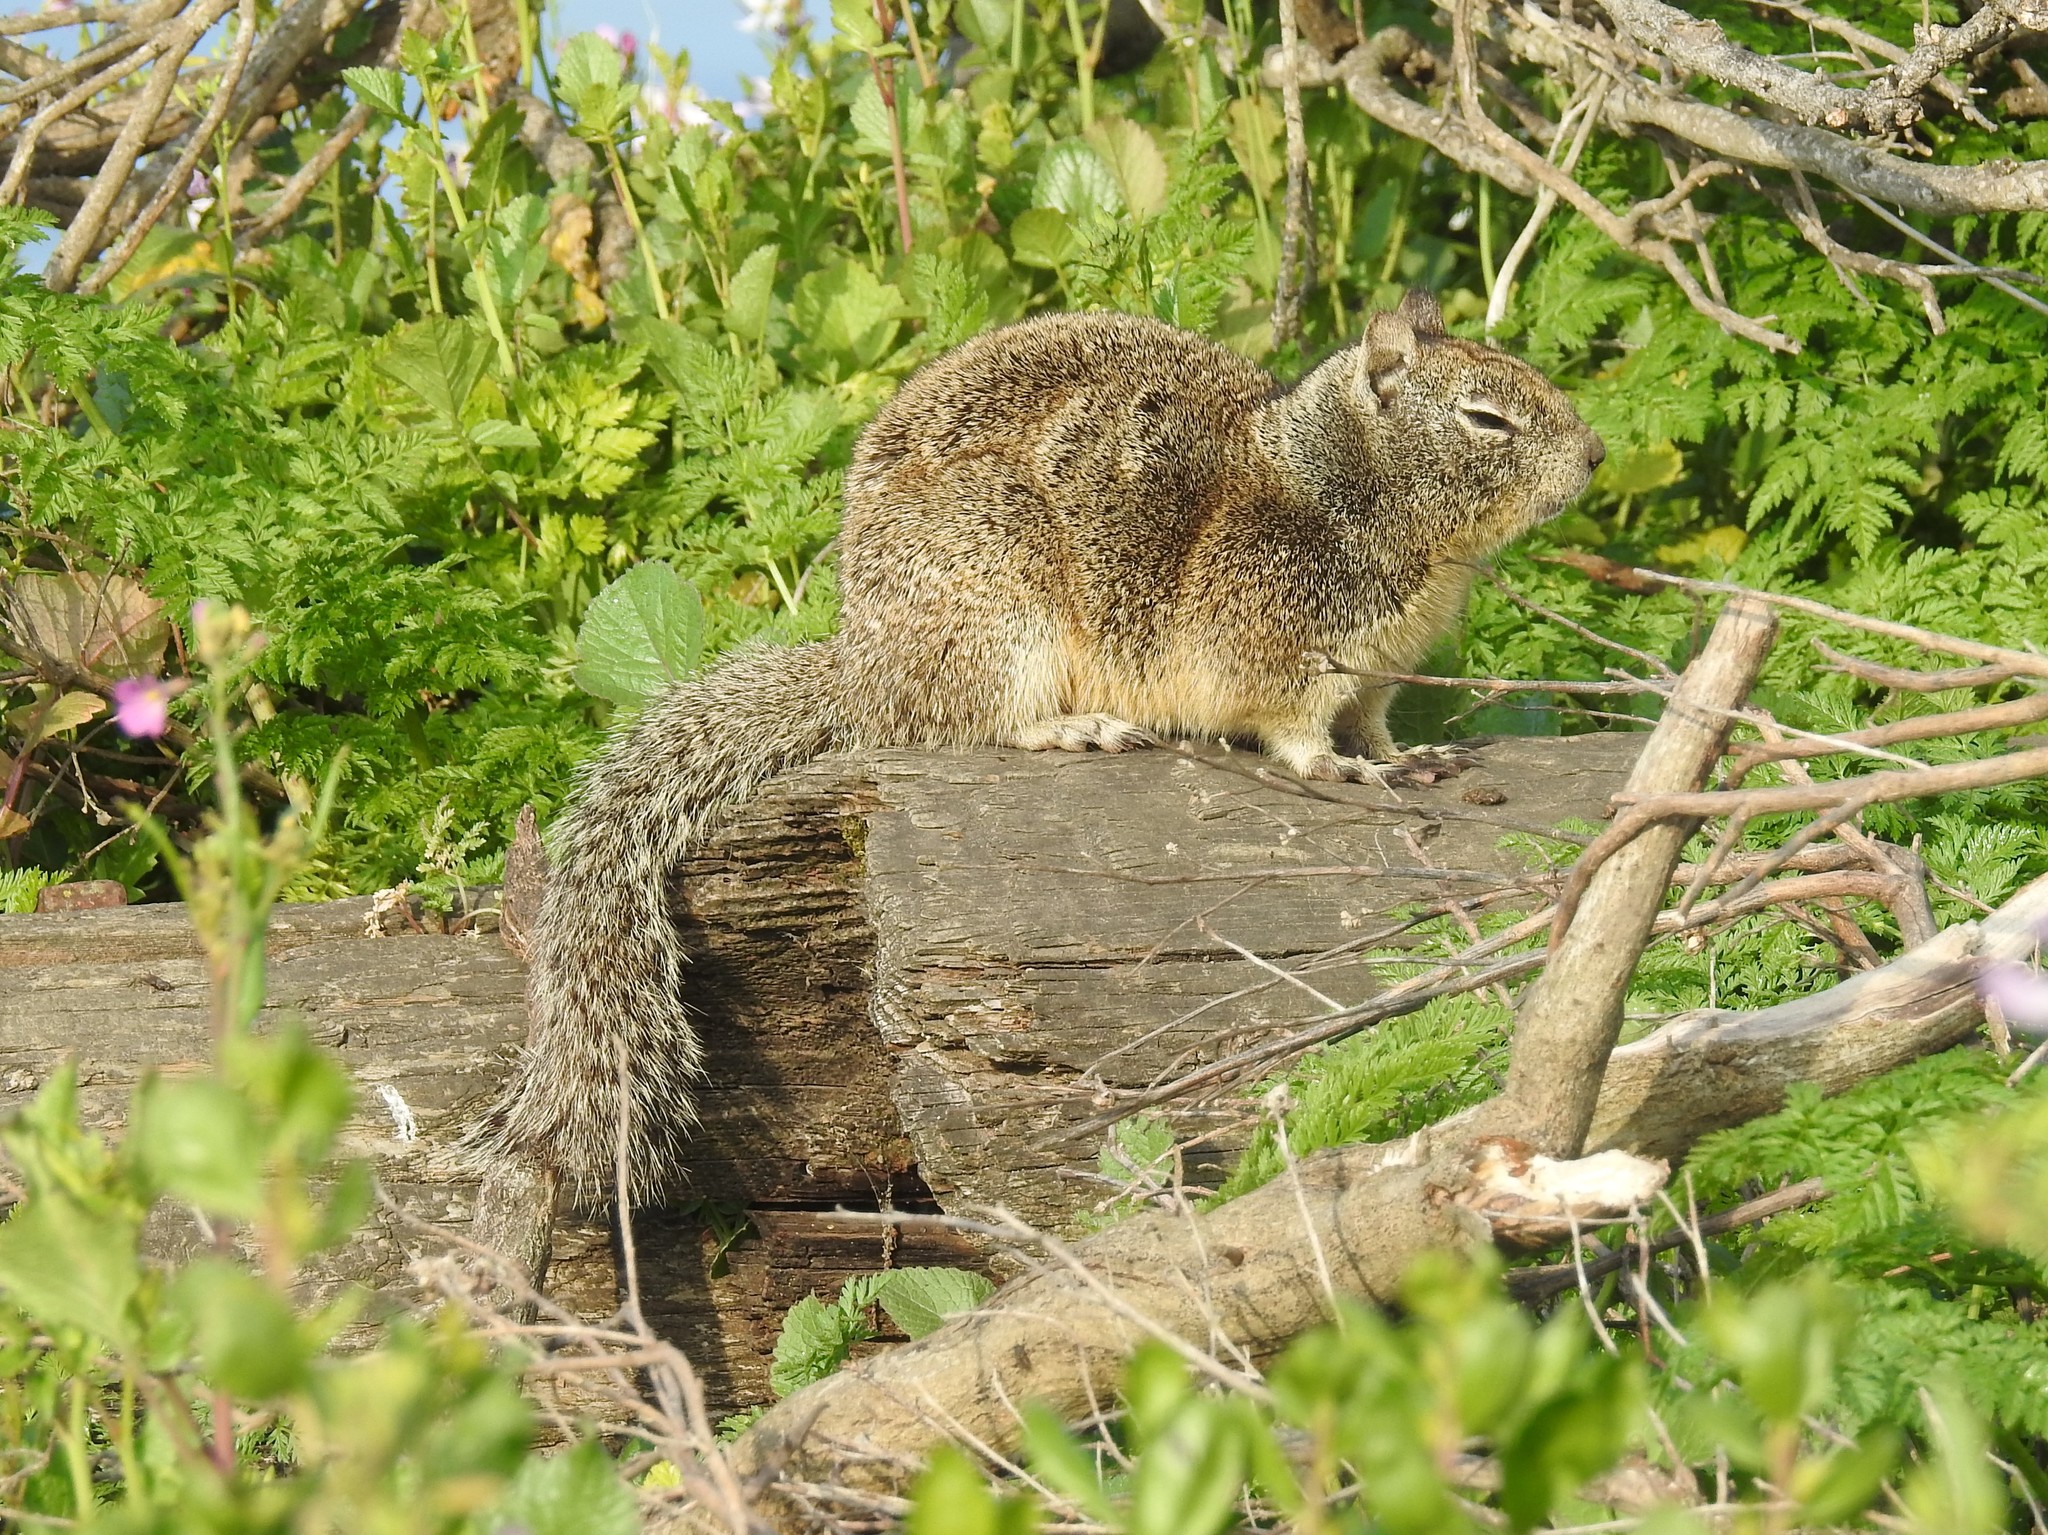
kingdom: Animalia
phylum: Chordata
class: Mammalia
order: Rodentia
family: Sciuridae
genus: Otospermophilus
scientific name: Otospermophilus beecheyi
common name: California ground squirrel
